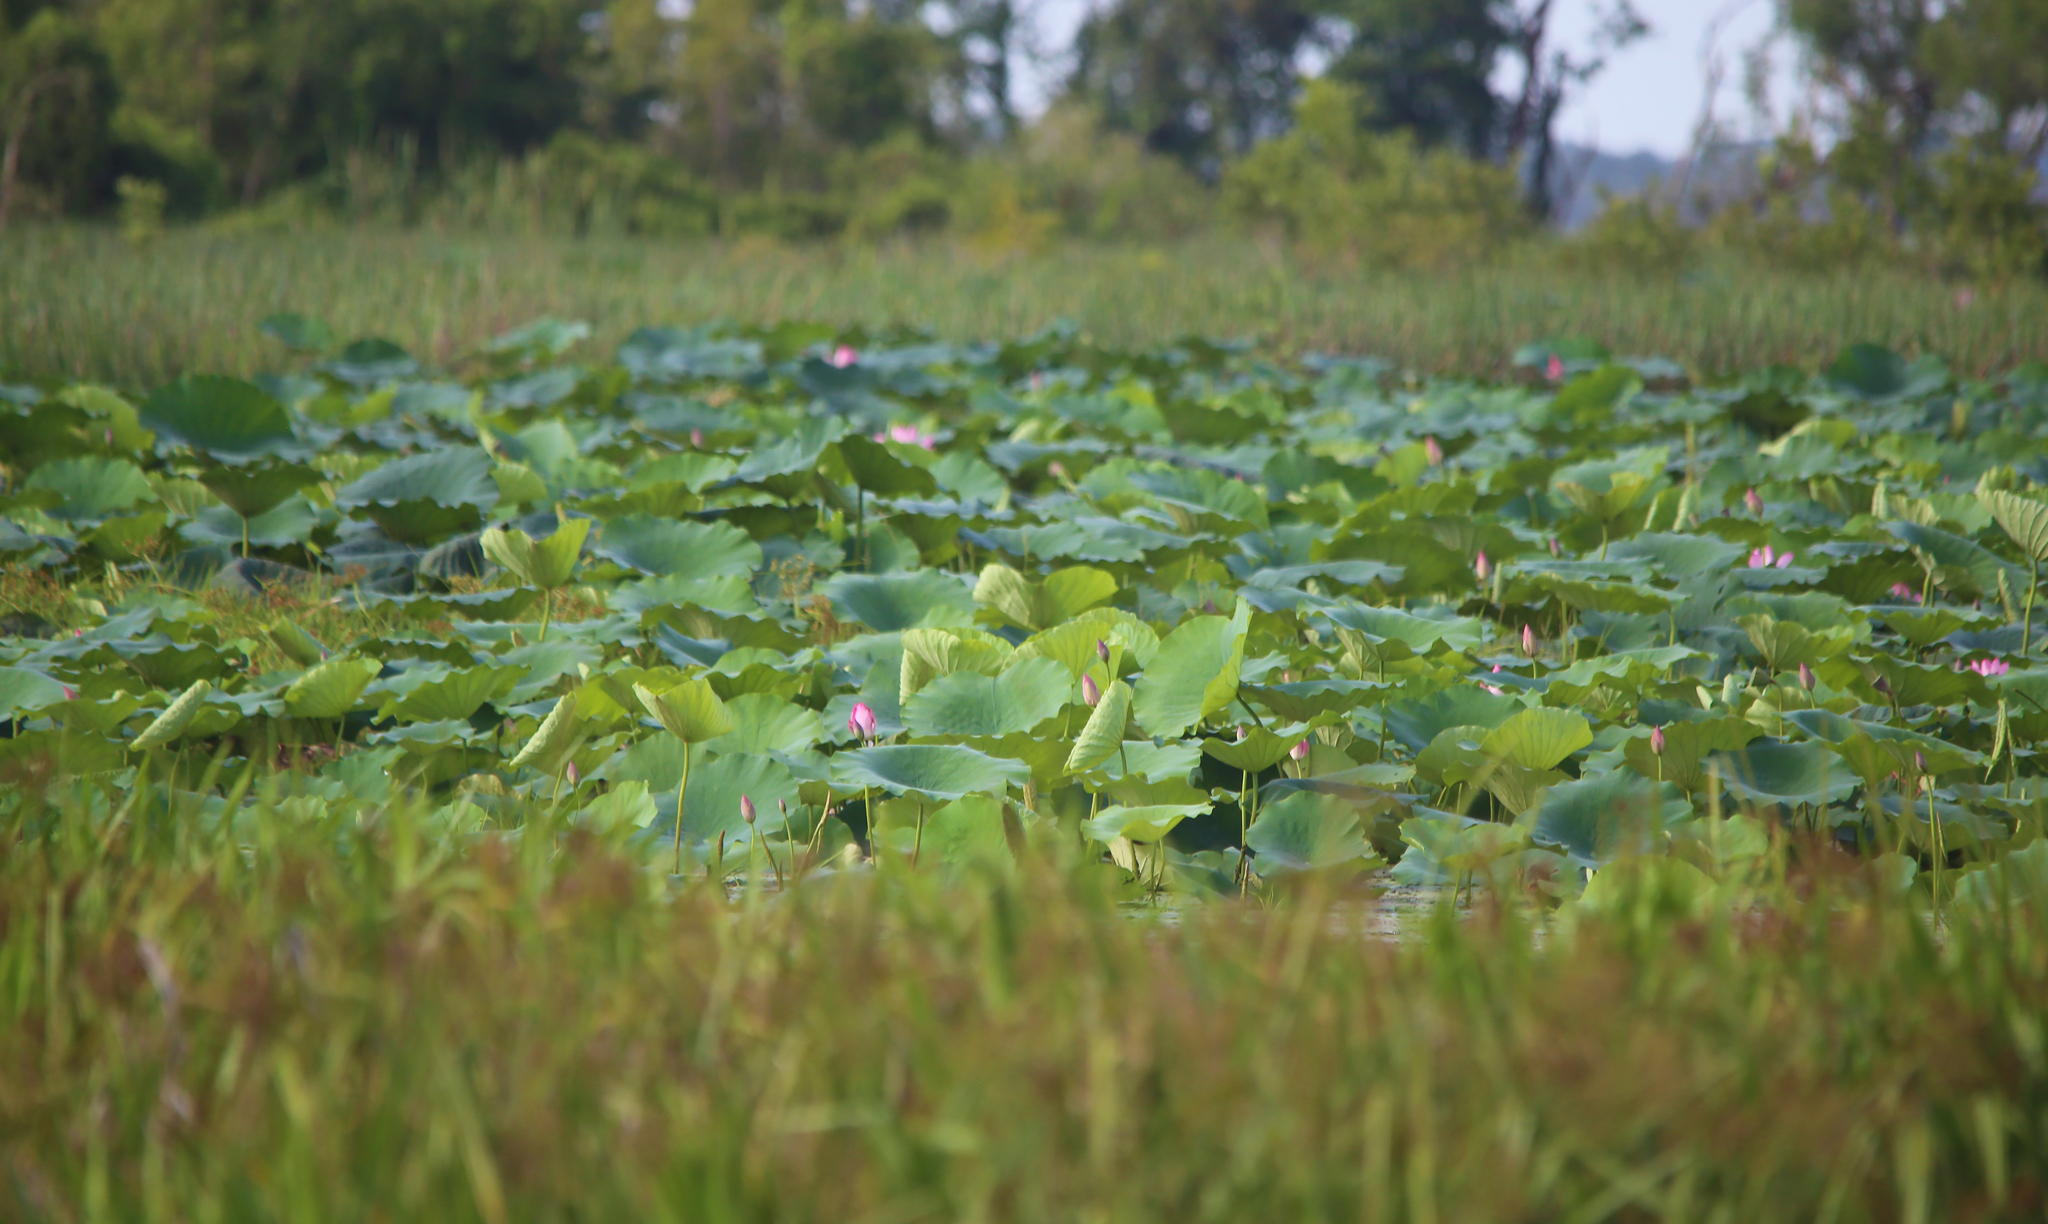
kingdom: Plantae
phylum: Tracheophyta
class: Magnoliopsida
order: Proteales
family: Nelumbonaceae
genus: Nelumbo
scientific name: Nelumbo nucifera
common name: Sacred lotus
